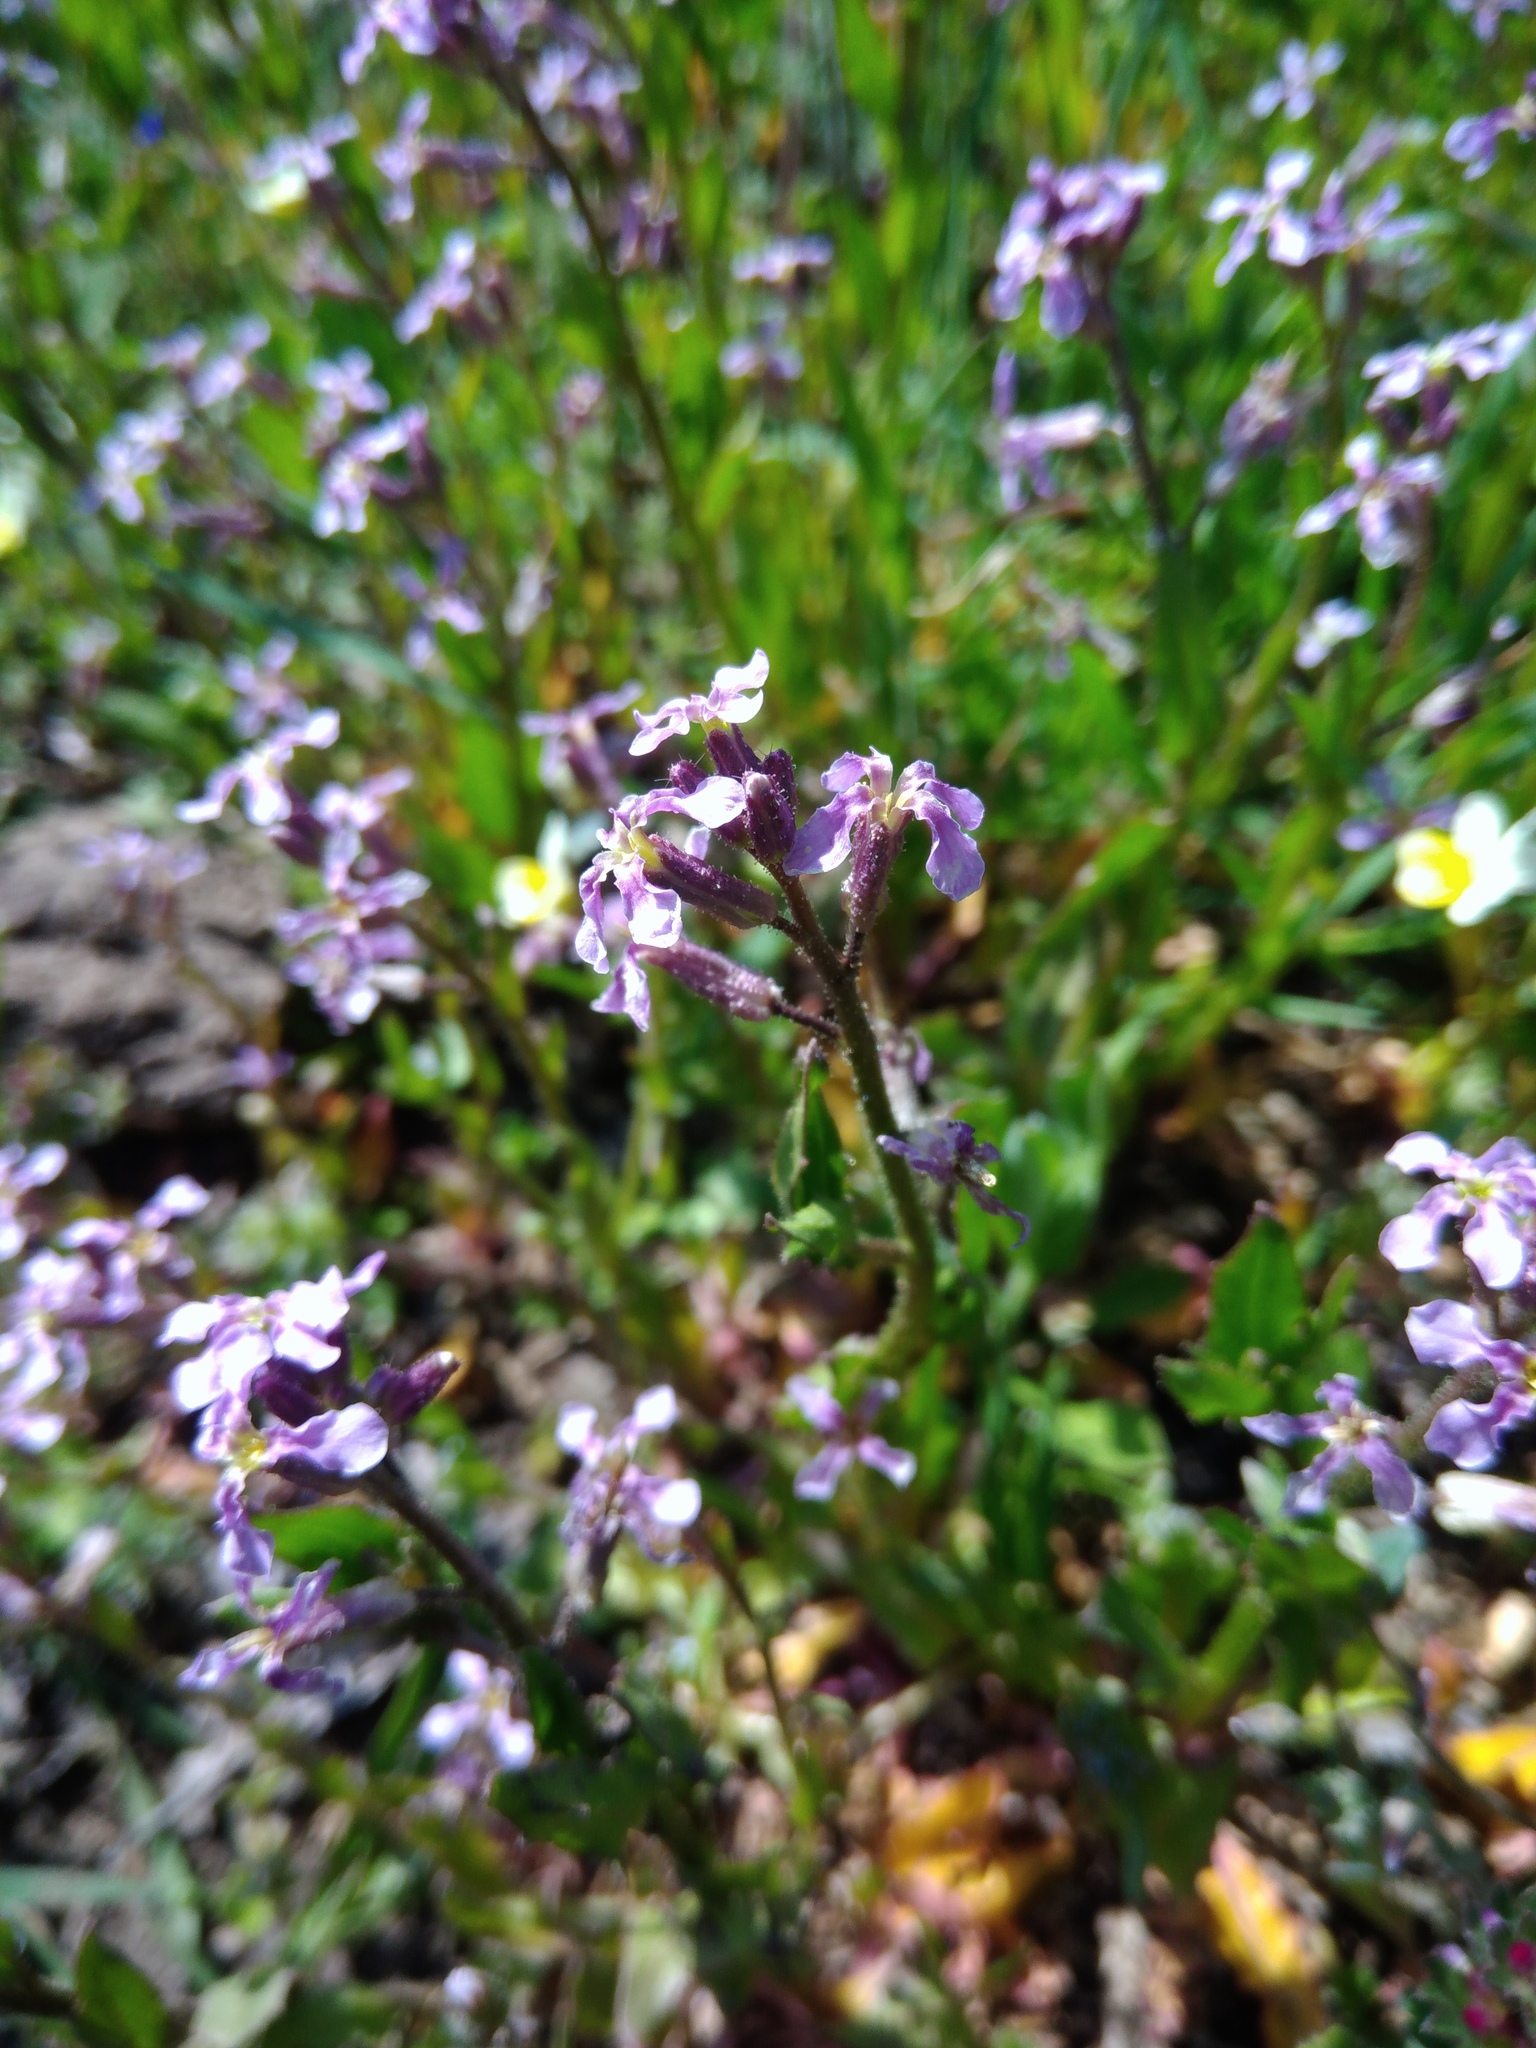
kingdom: Plantae
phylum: Tracheophyta
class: Magnoliopsida
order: Brassicales
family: Brassicaceae
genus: Chorispora
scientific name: Chorispora tenella
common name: Crossflower
